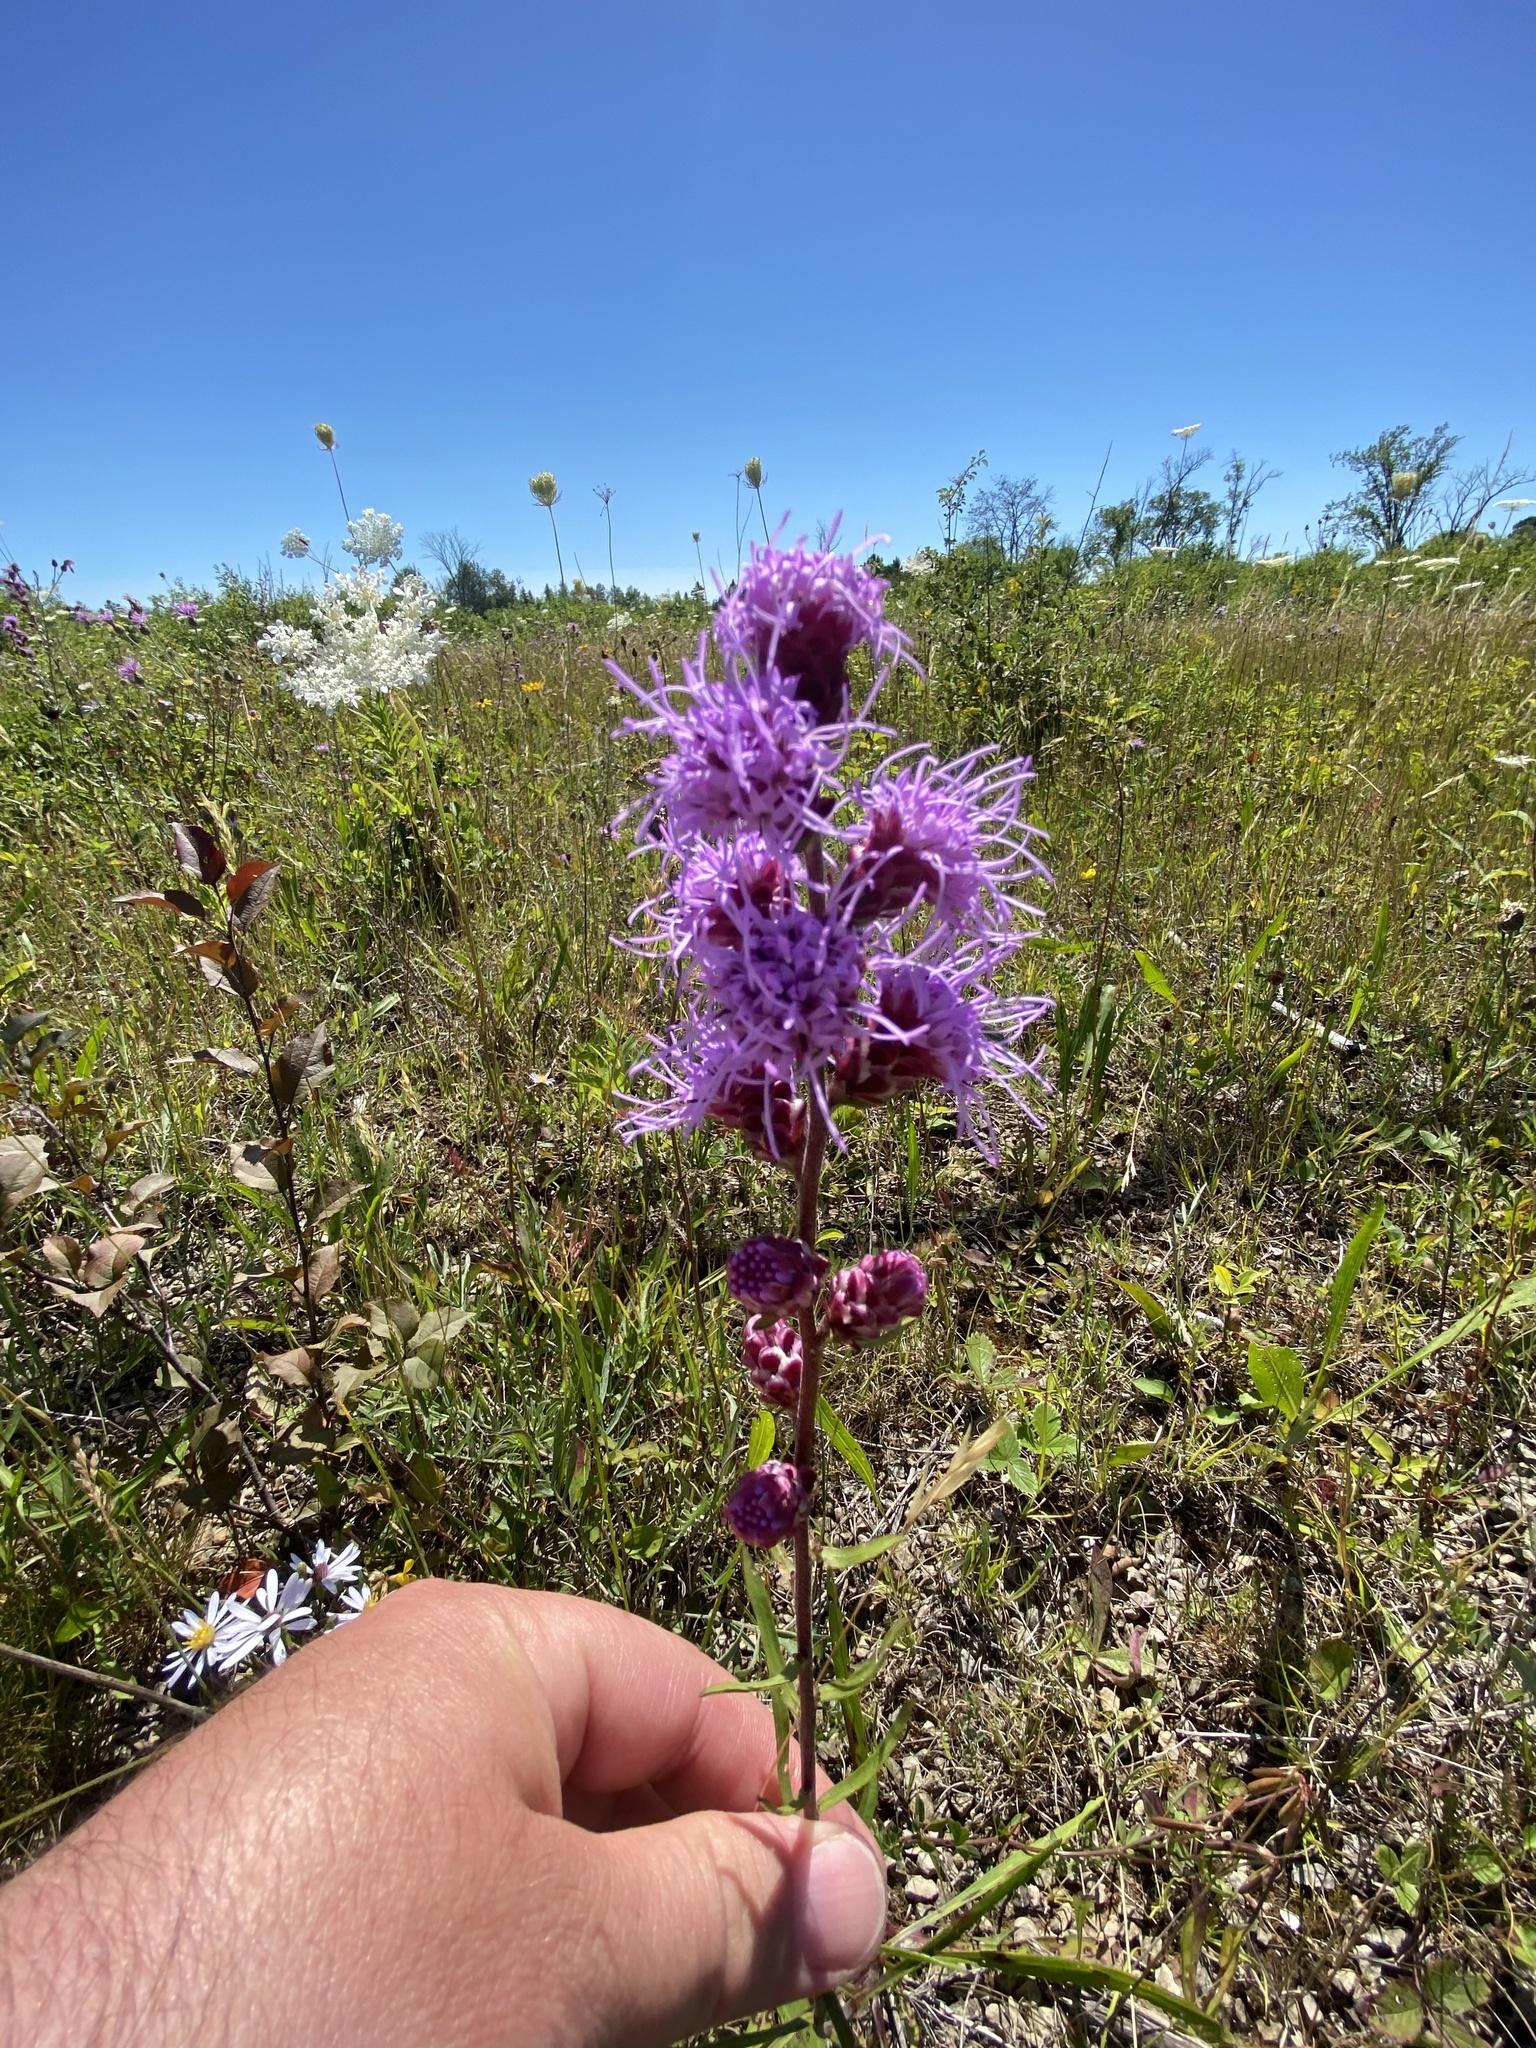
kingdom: Plantae
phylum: Tracheophyta
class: Magnoliopsida
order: Asterales
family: Asteraceae
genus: Liatris
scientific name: Liatris aspera
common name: Lacerate blazing-star
